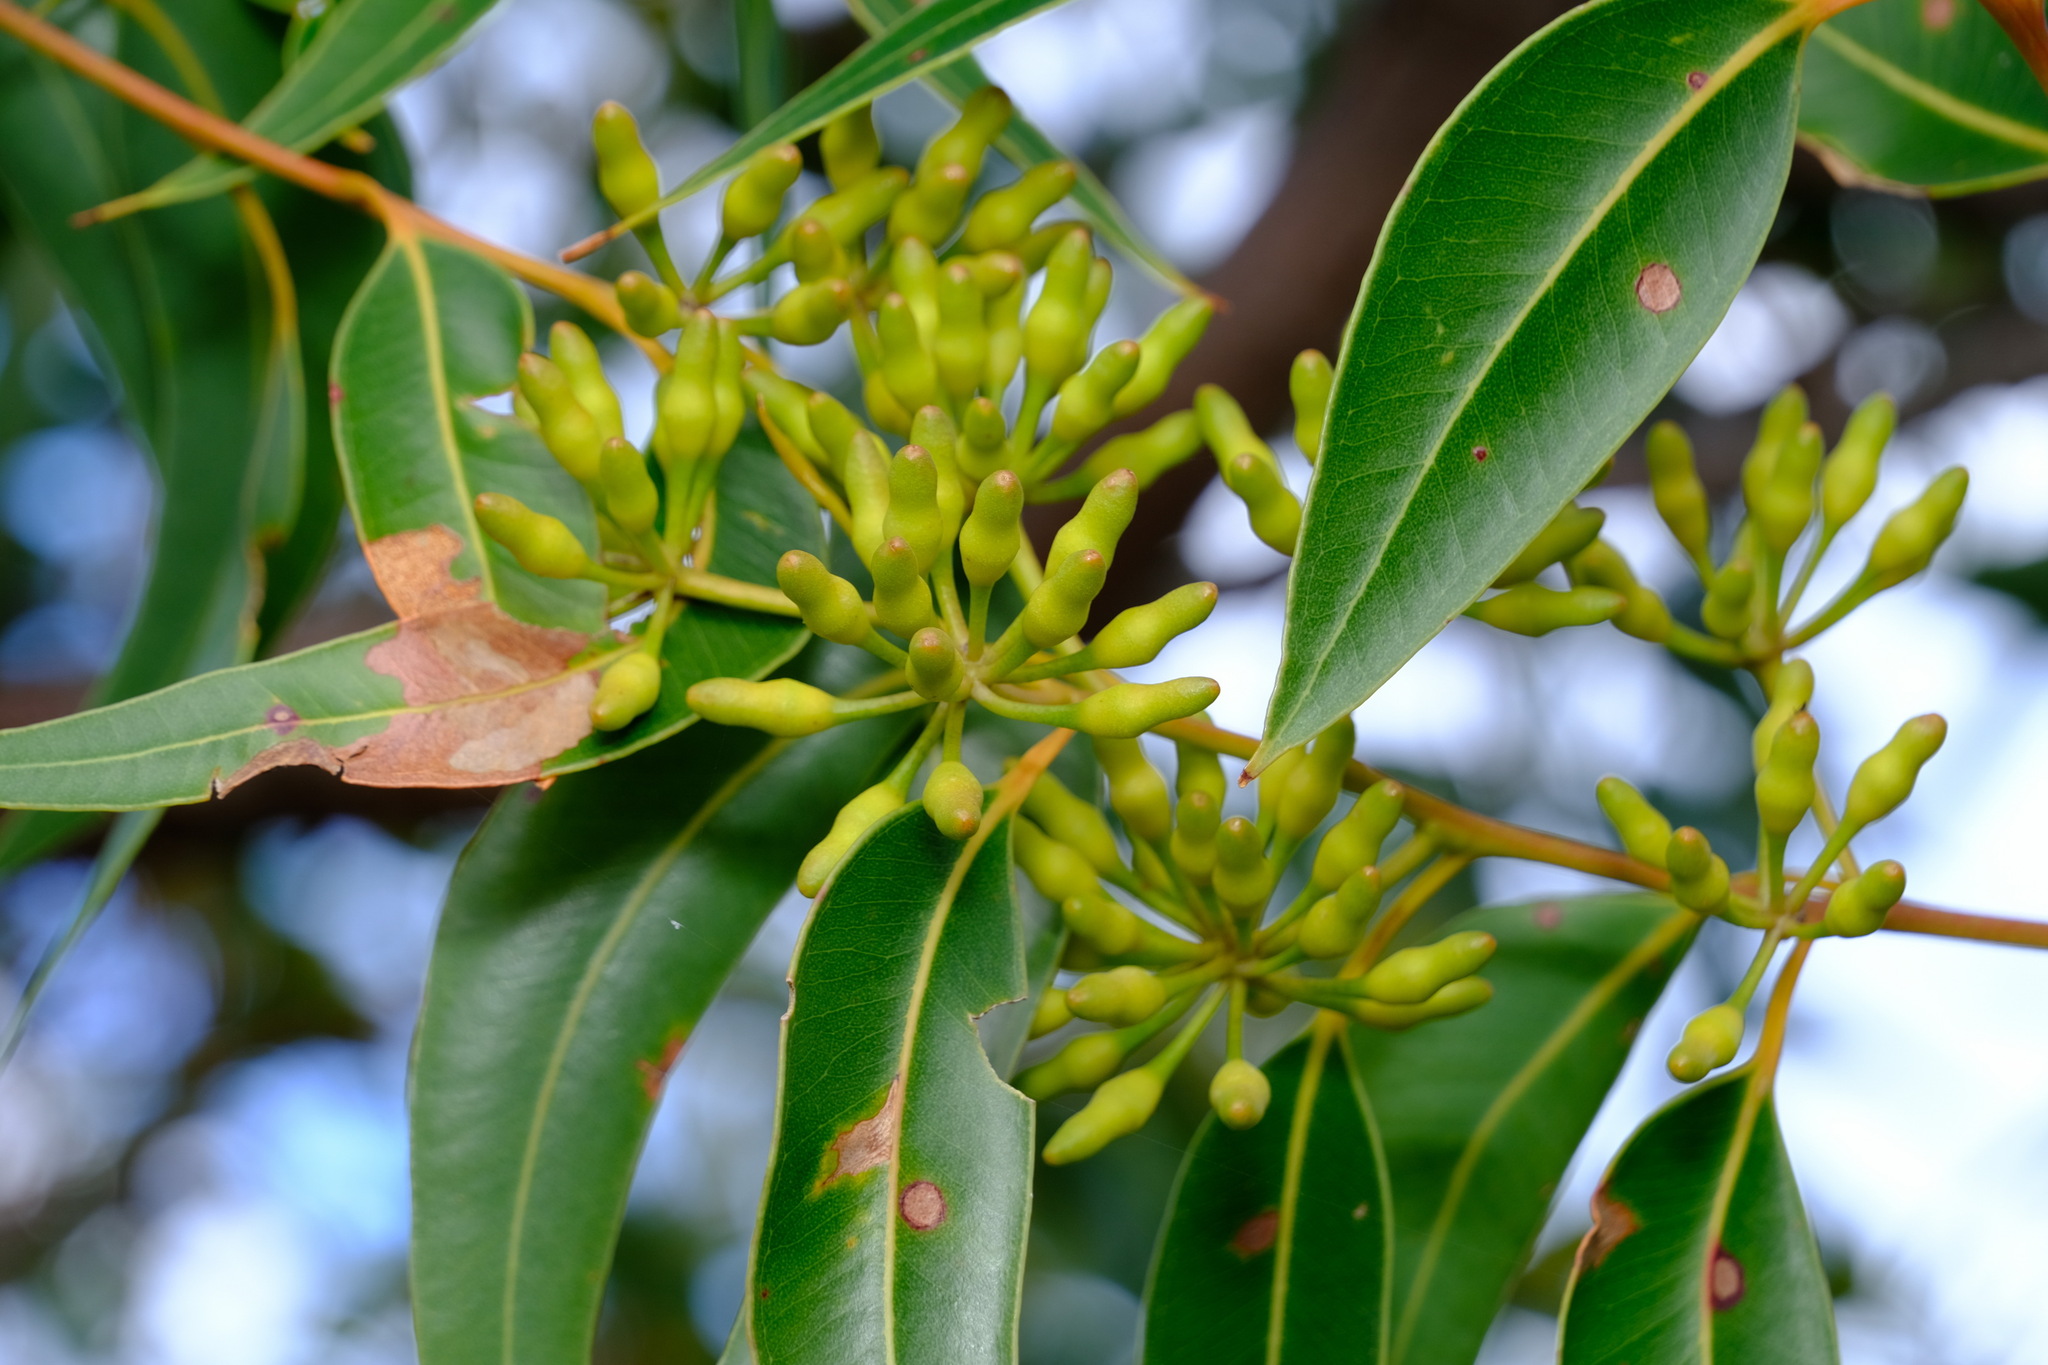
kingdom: Plantae
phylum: Tracheophyta
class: Magnoliopsida
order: Myrtales
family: Myrtaceae
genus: Eucalyptus
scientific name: Eucalyptus marginata
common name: Jarrah
